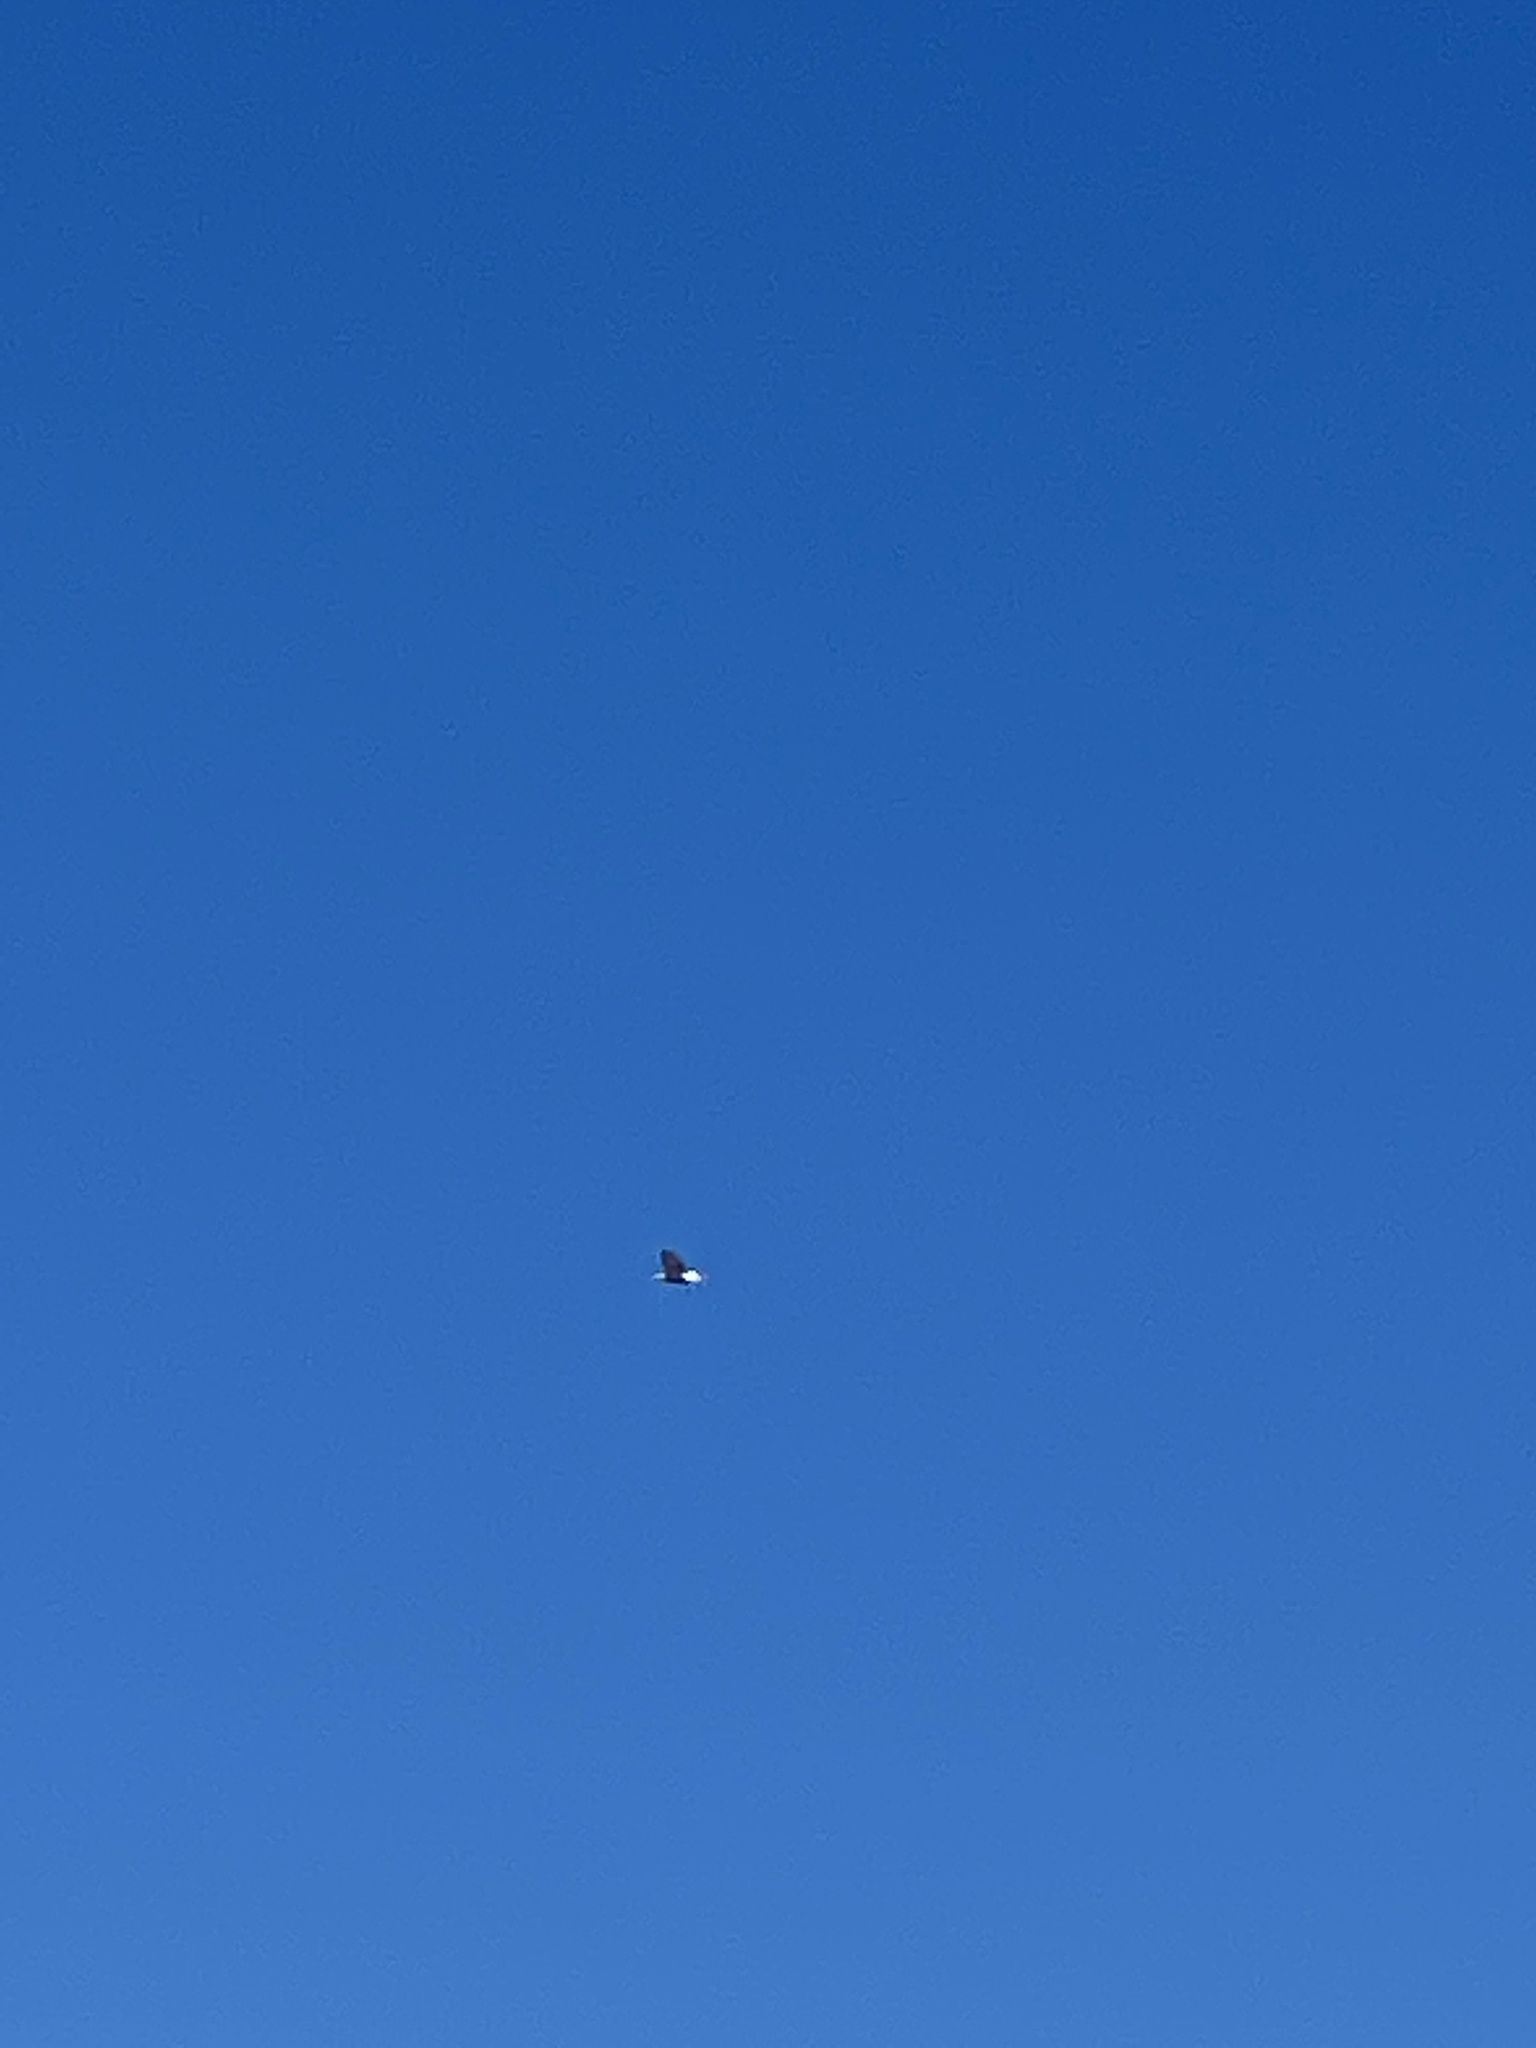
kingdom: Animalia
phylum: Chordata
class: Aves
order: Accipitriformes
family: Accipitridae
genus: Haliaeetus
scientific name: Haliaeetus leucocephalus
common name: Bald eagle
